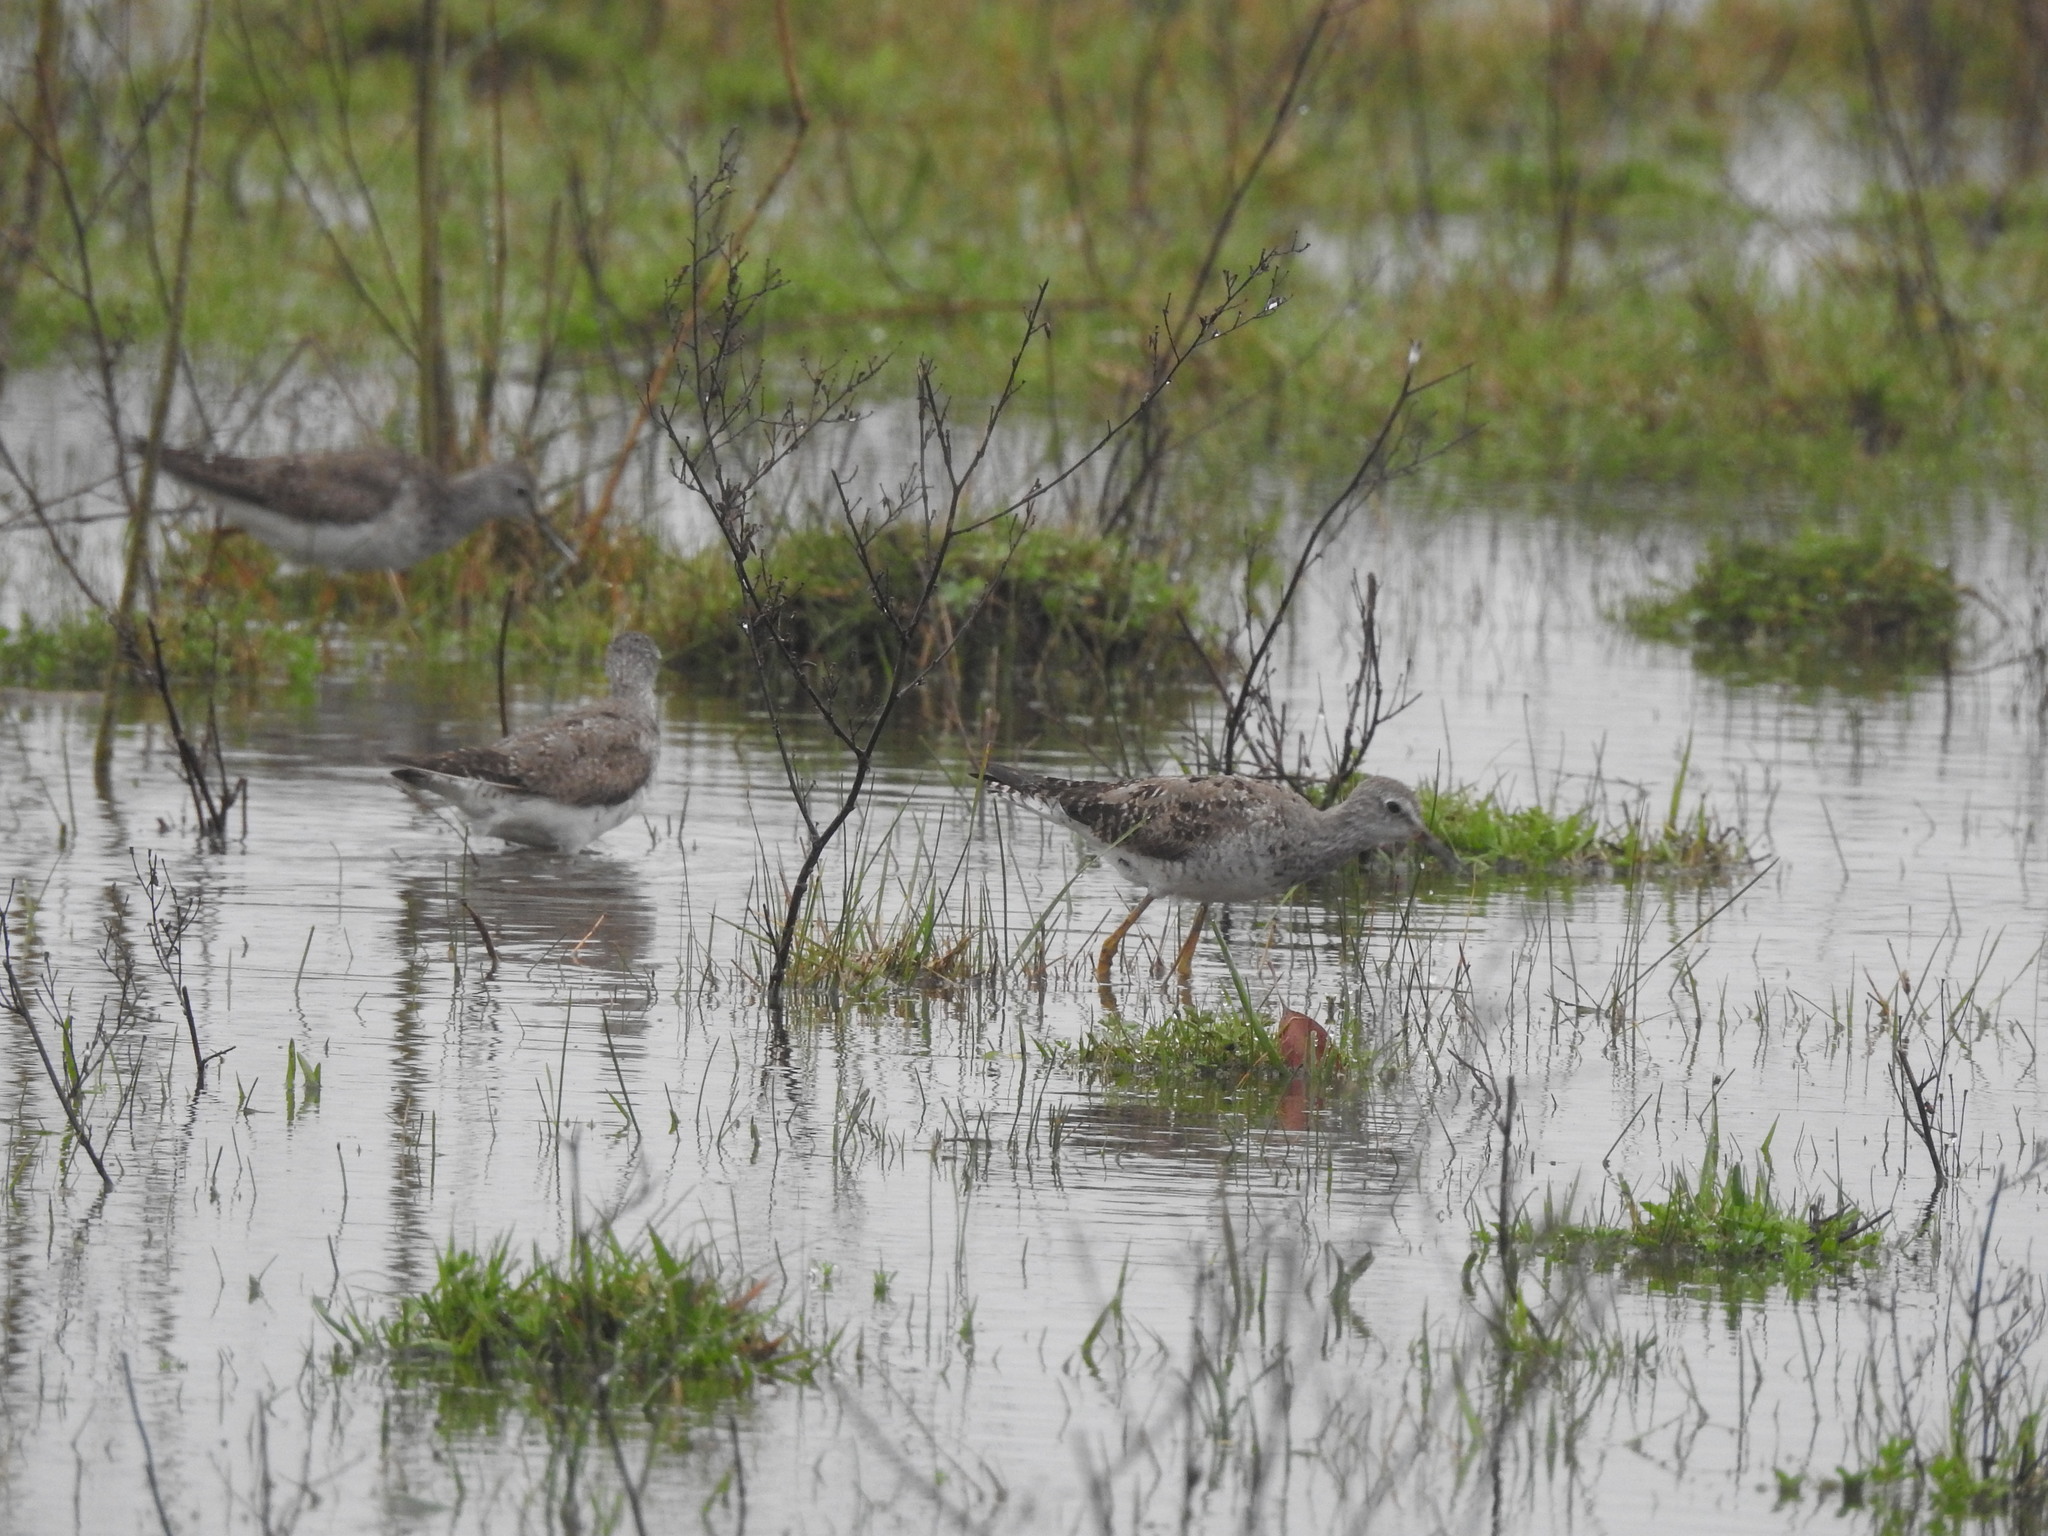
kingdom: Animalia
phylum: Chordata
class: Aves
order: Charadriiformes
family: Scolopacidae
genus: Tringa
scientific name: Tringa flavipes
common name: Lesser yellowlegs
